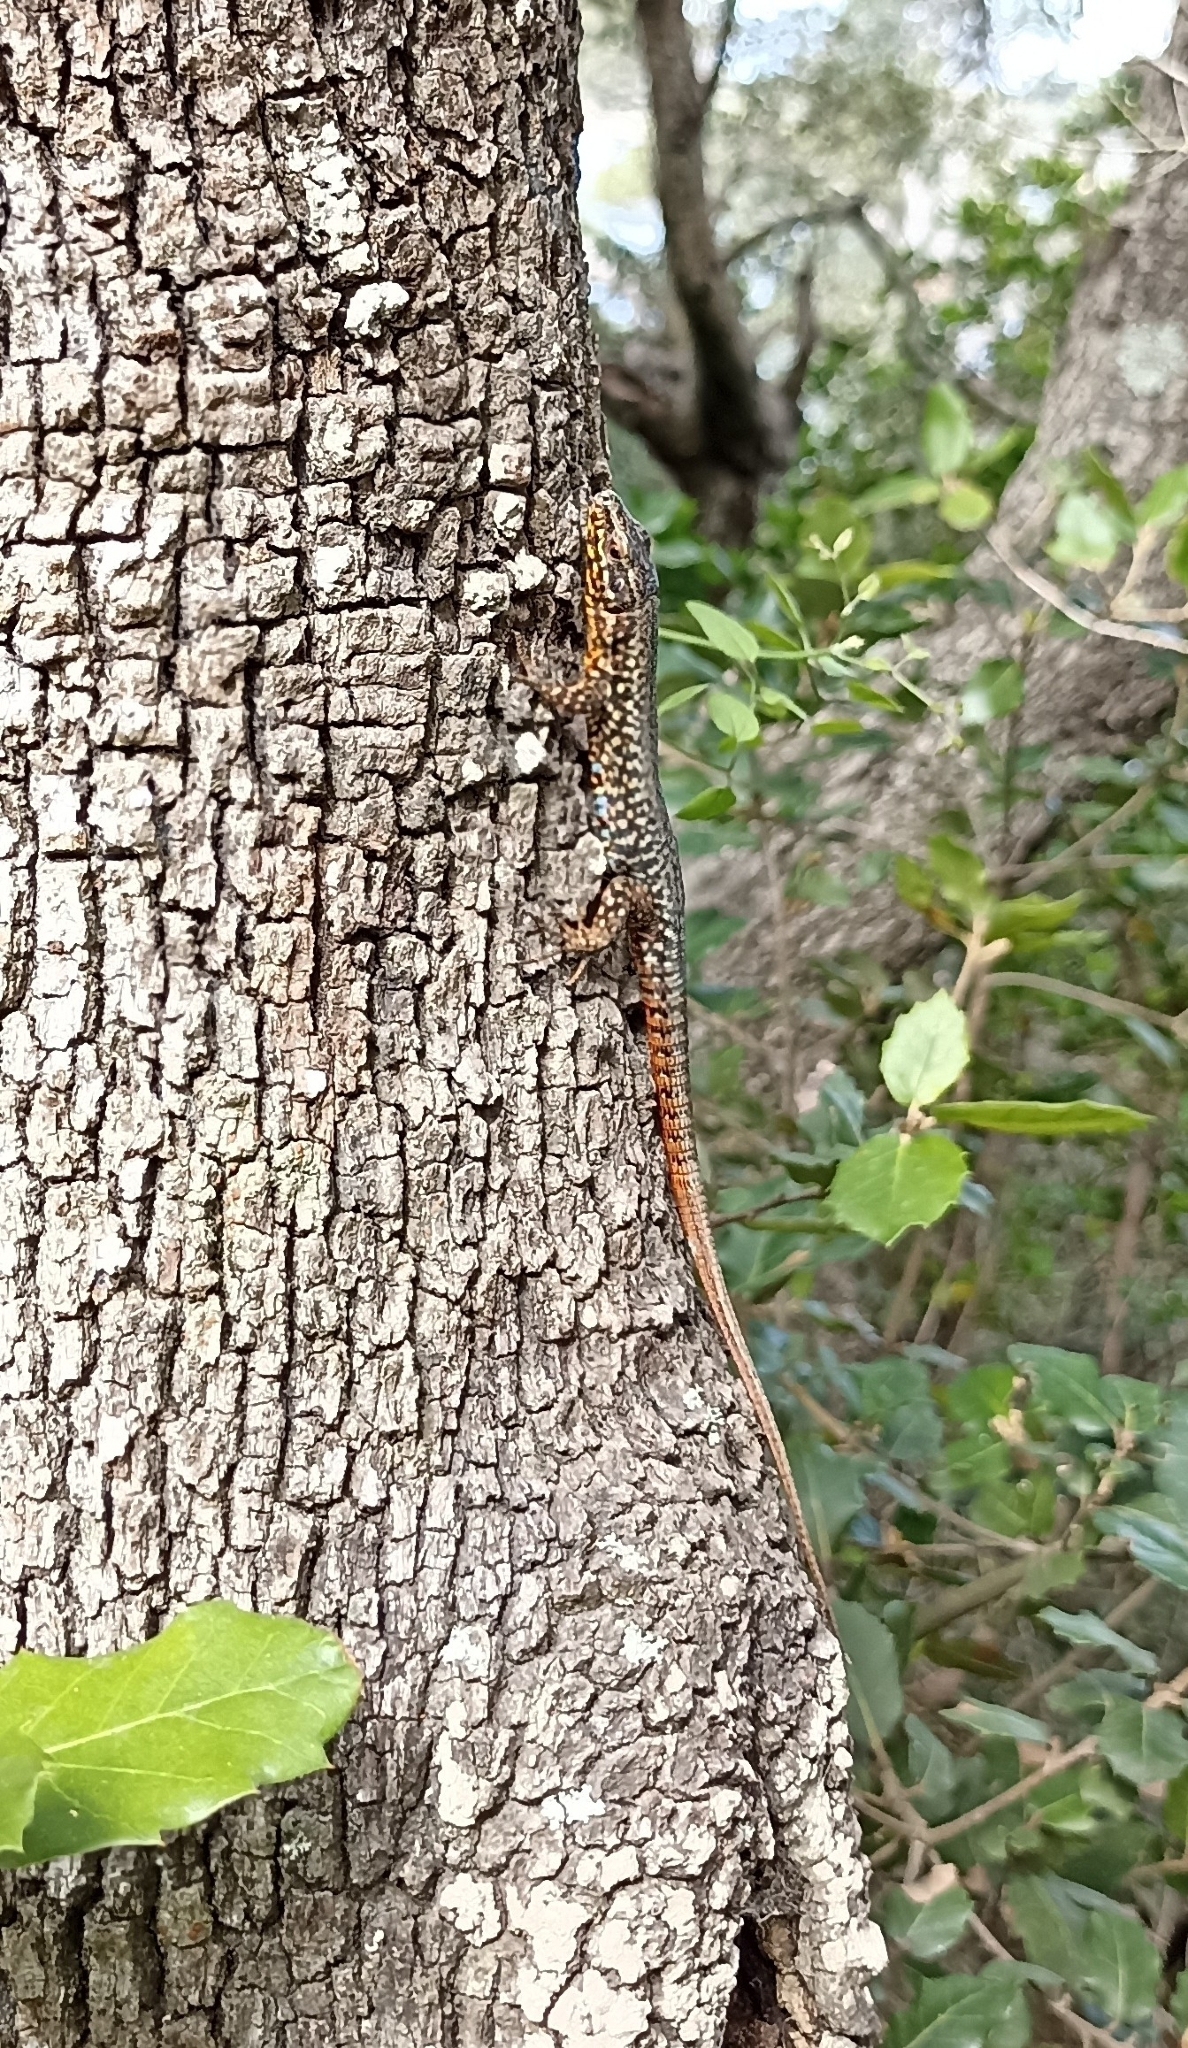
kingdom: Animalia
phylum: Chordata
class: Squamata
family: Lacertidae
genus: Podarcis
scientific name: Podarcis muralis
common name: Common wall lizard
